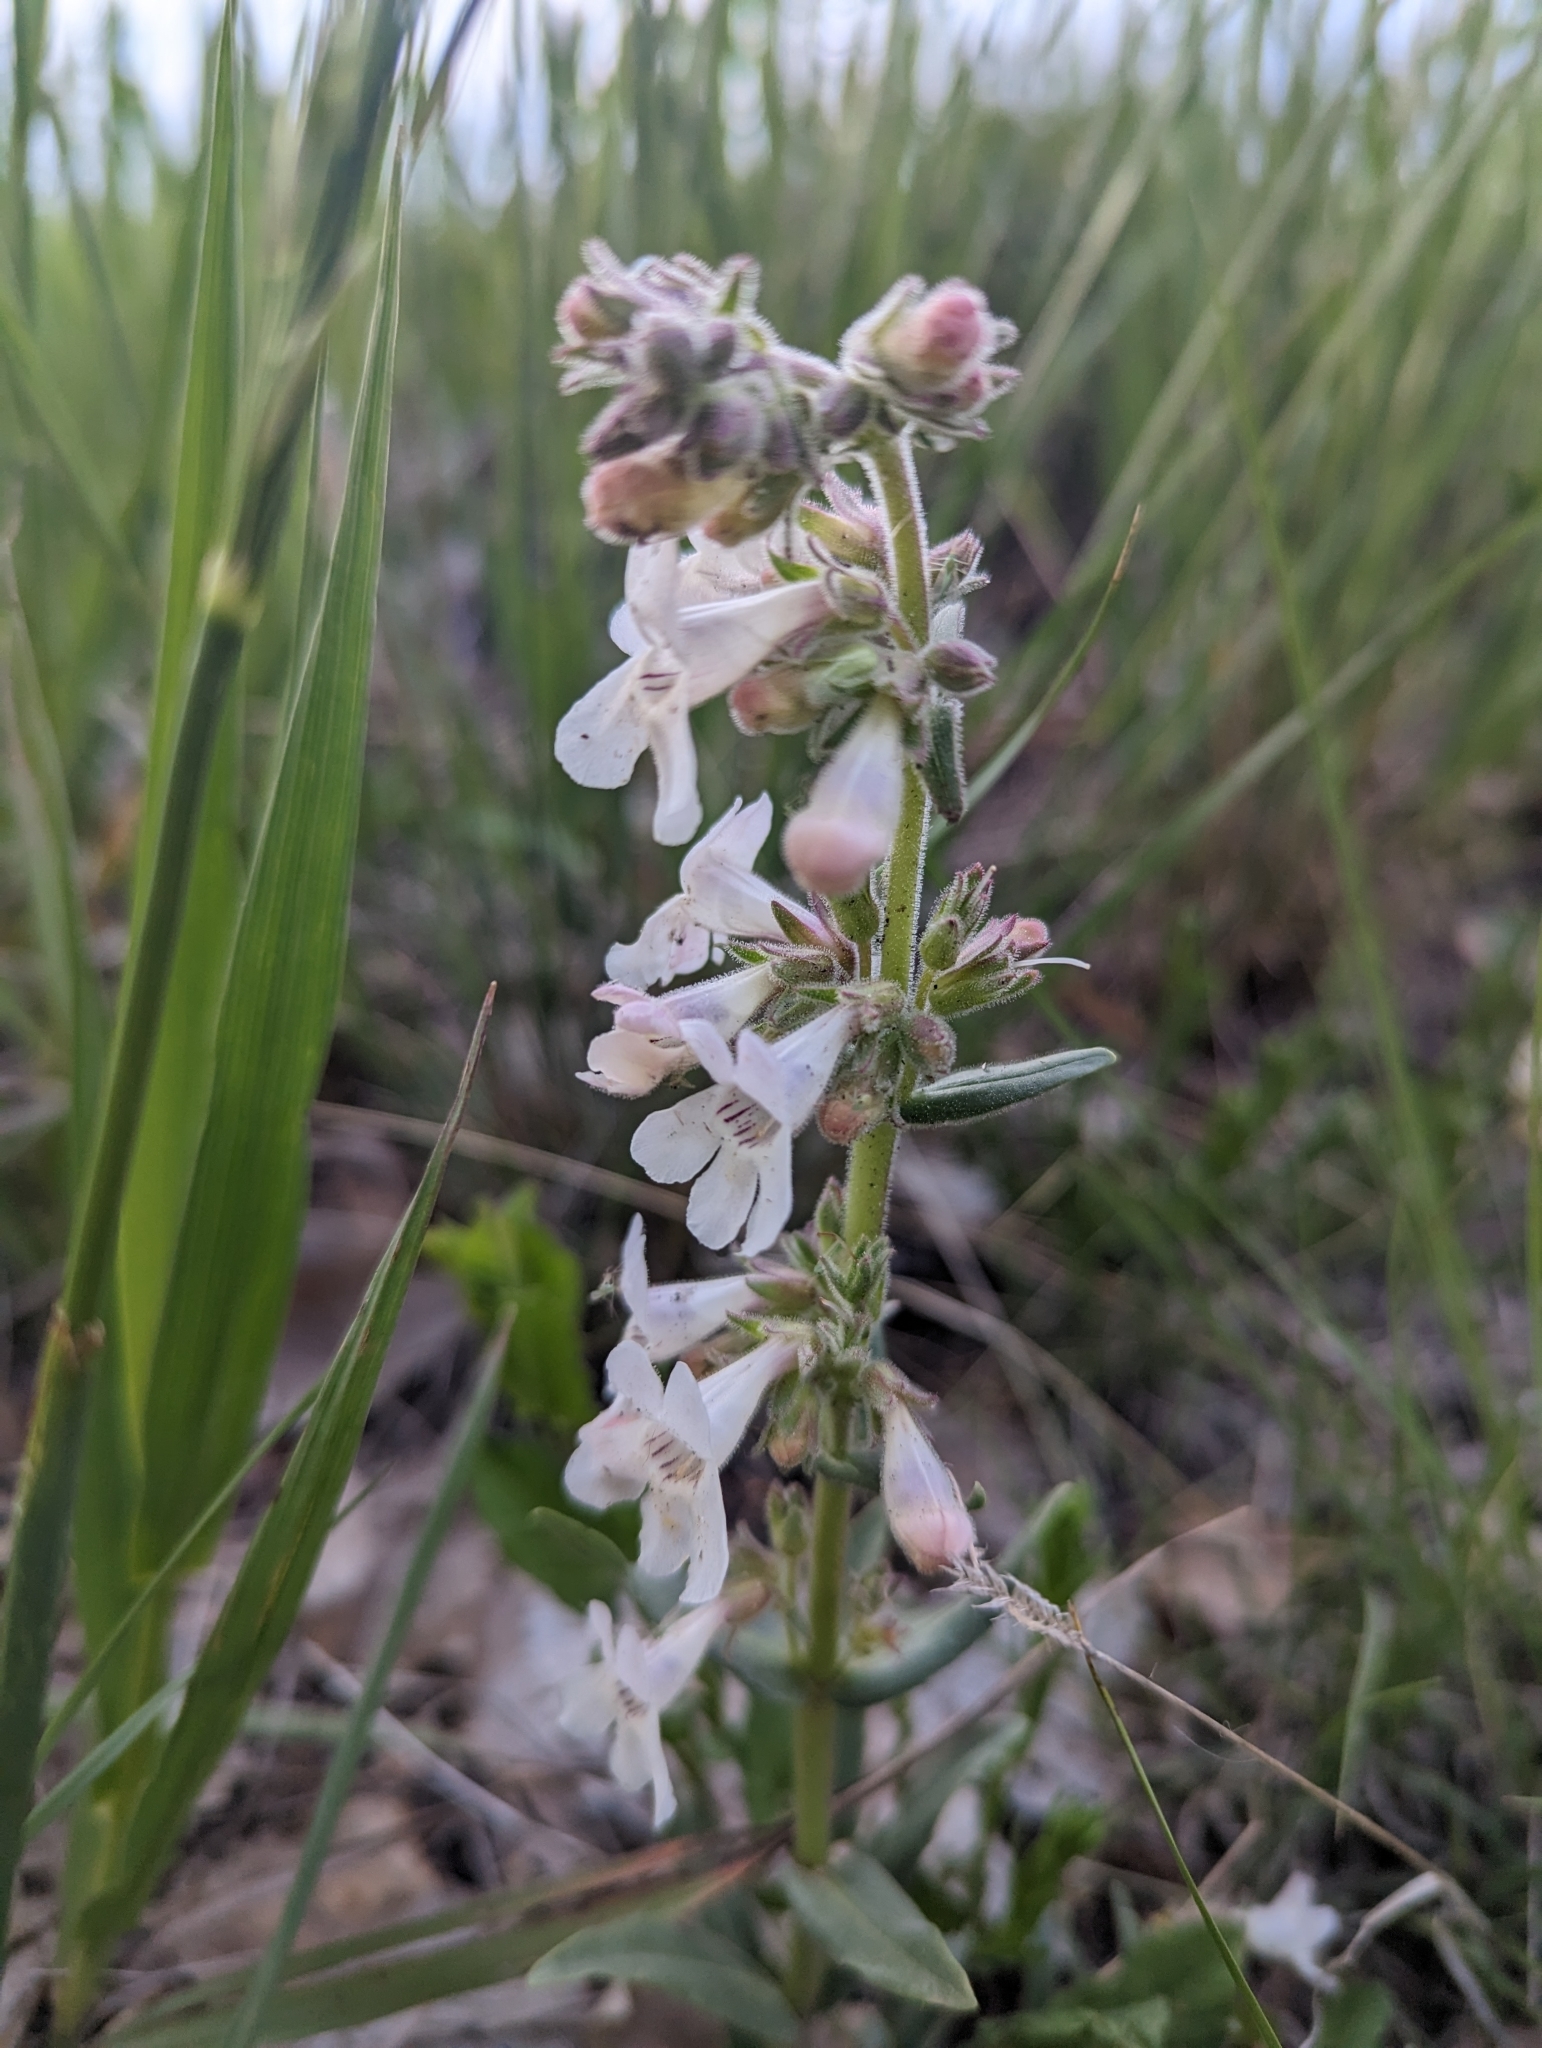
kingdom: Plantae
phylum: Tracheophyta
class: Magnoliopsida
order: Lamiales
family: Plantaginaceae
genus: Penstemon
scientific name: Penstemon albidus
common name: White beardtongue
